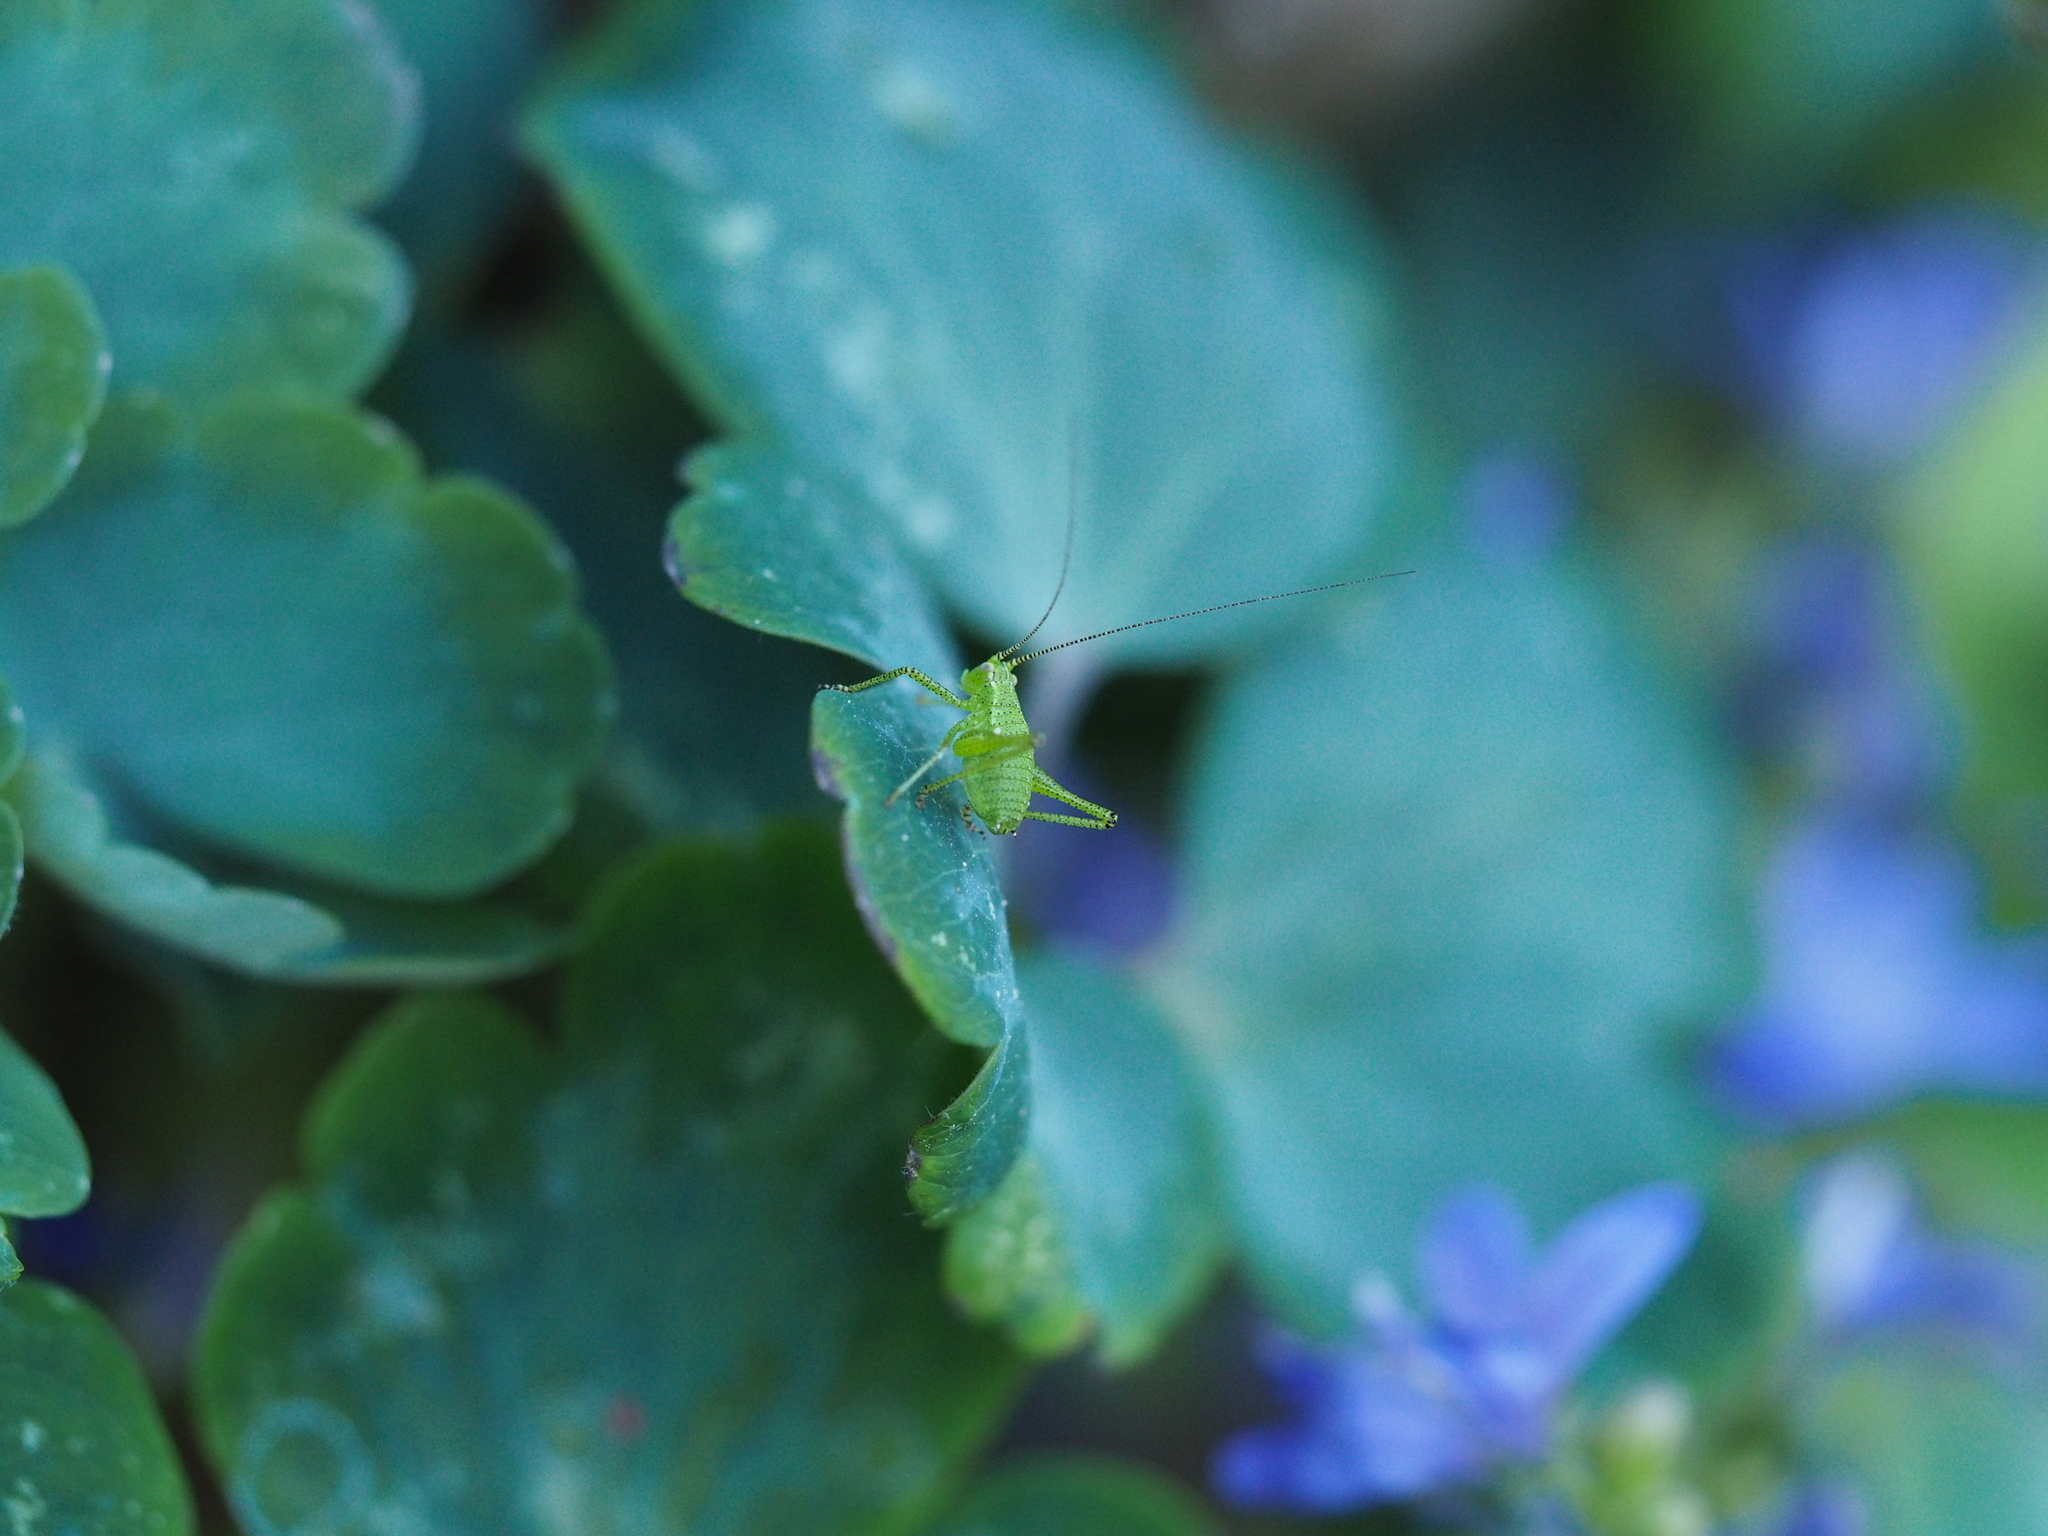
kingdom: Animalia
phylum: Arthropoda
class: Insecta
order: Orthoptera
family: Tettigoniidae
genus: Leptophyes
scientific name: Leptophyes punctatissima
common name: Speckled bush-cricket
